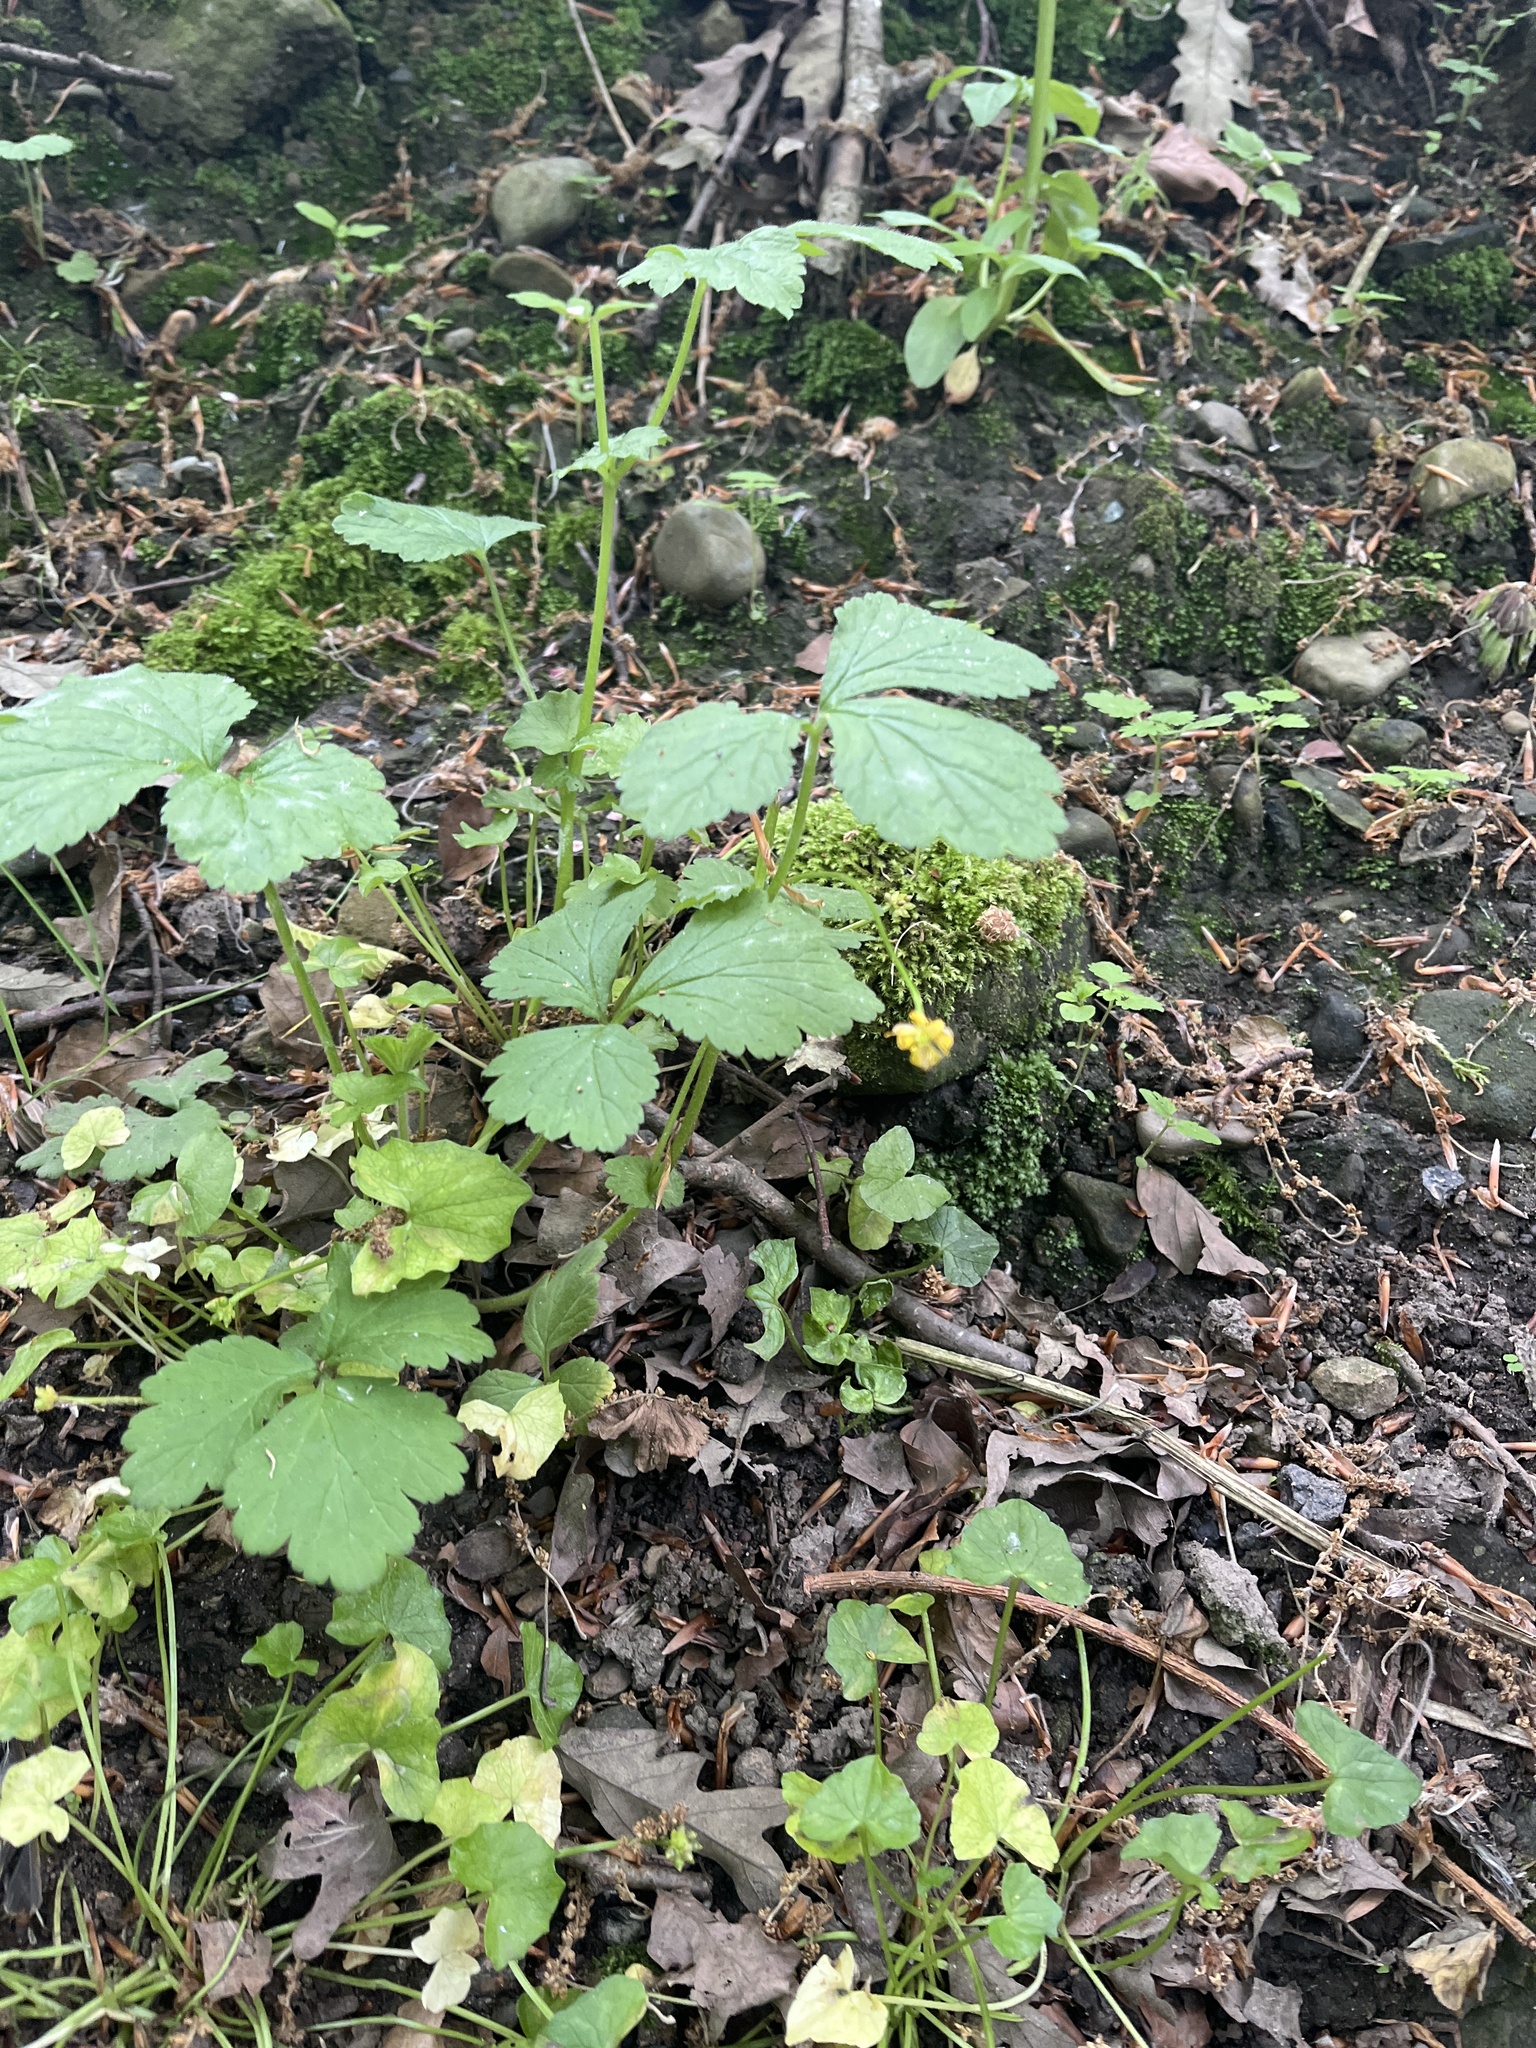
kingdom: Plantae
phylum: Tracheophyta
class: Magnoliopsida
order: Rosales
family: Rosaceae
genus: Geum
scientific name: Geum urbanum
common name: Wood avens
